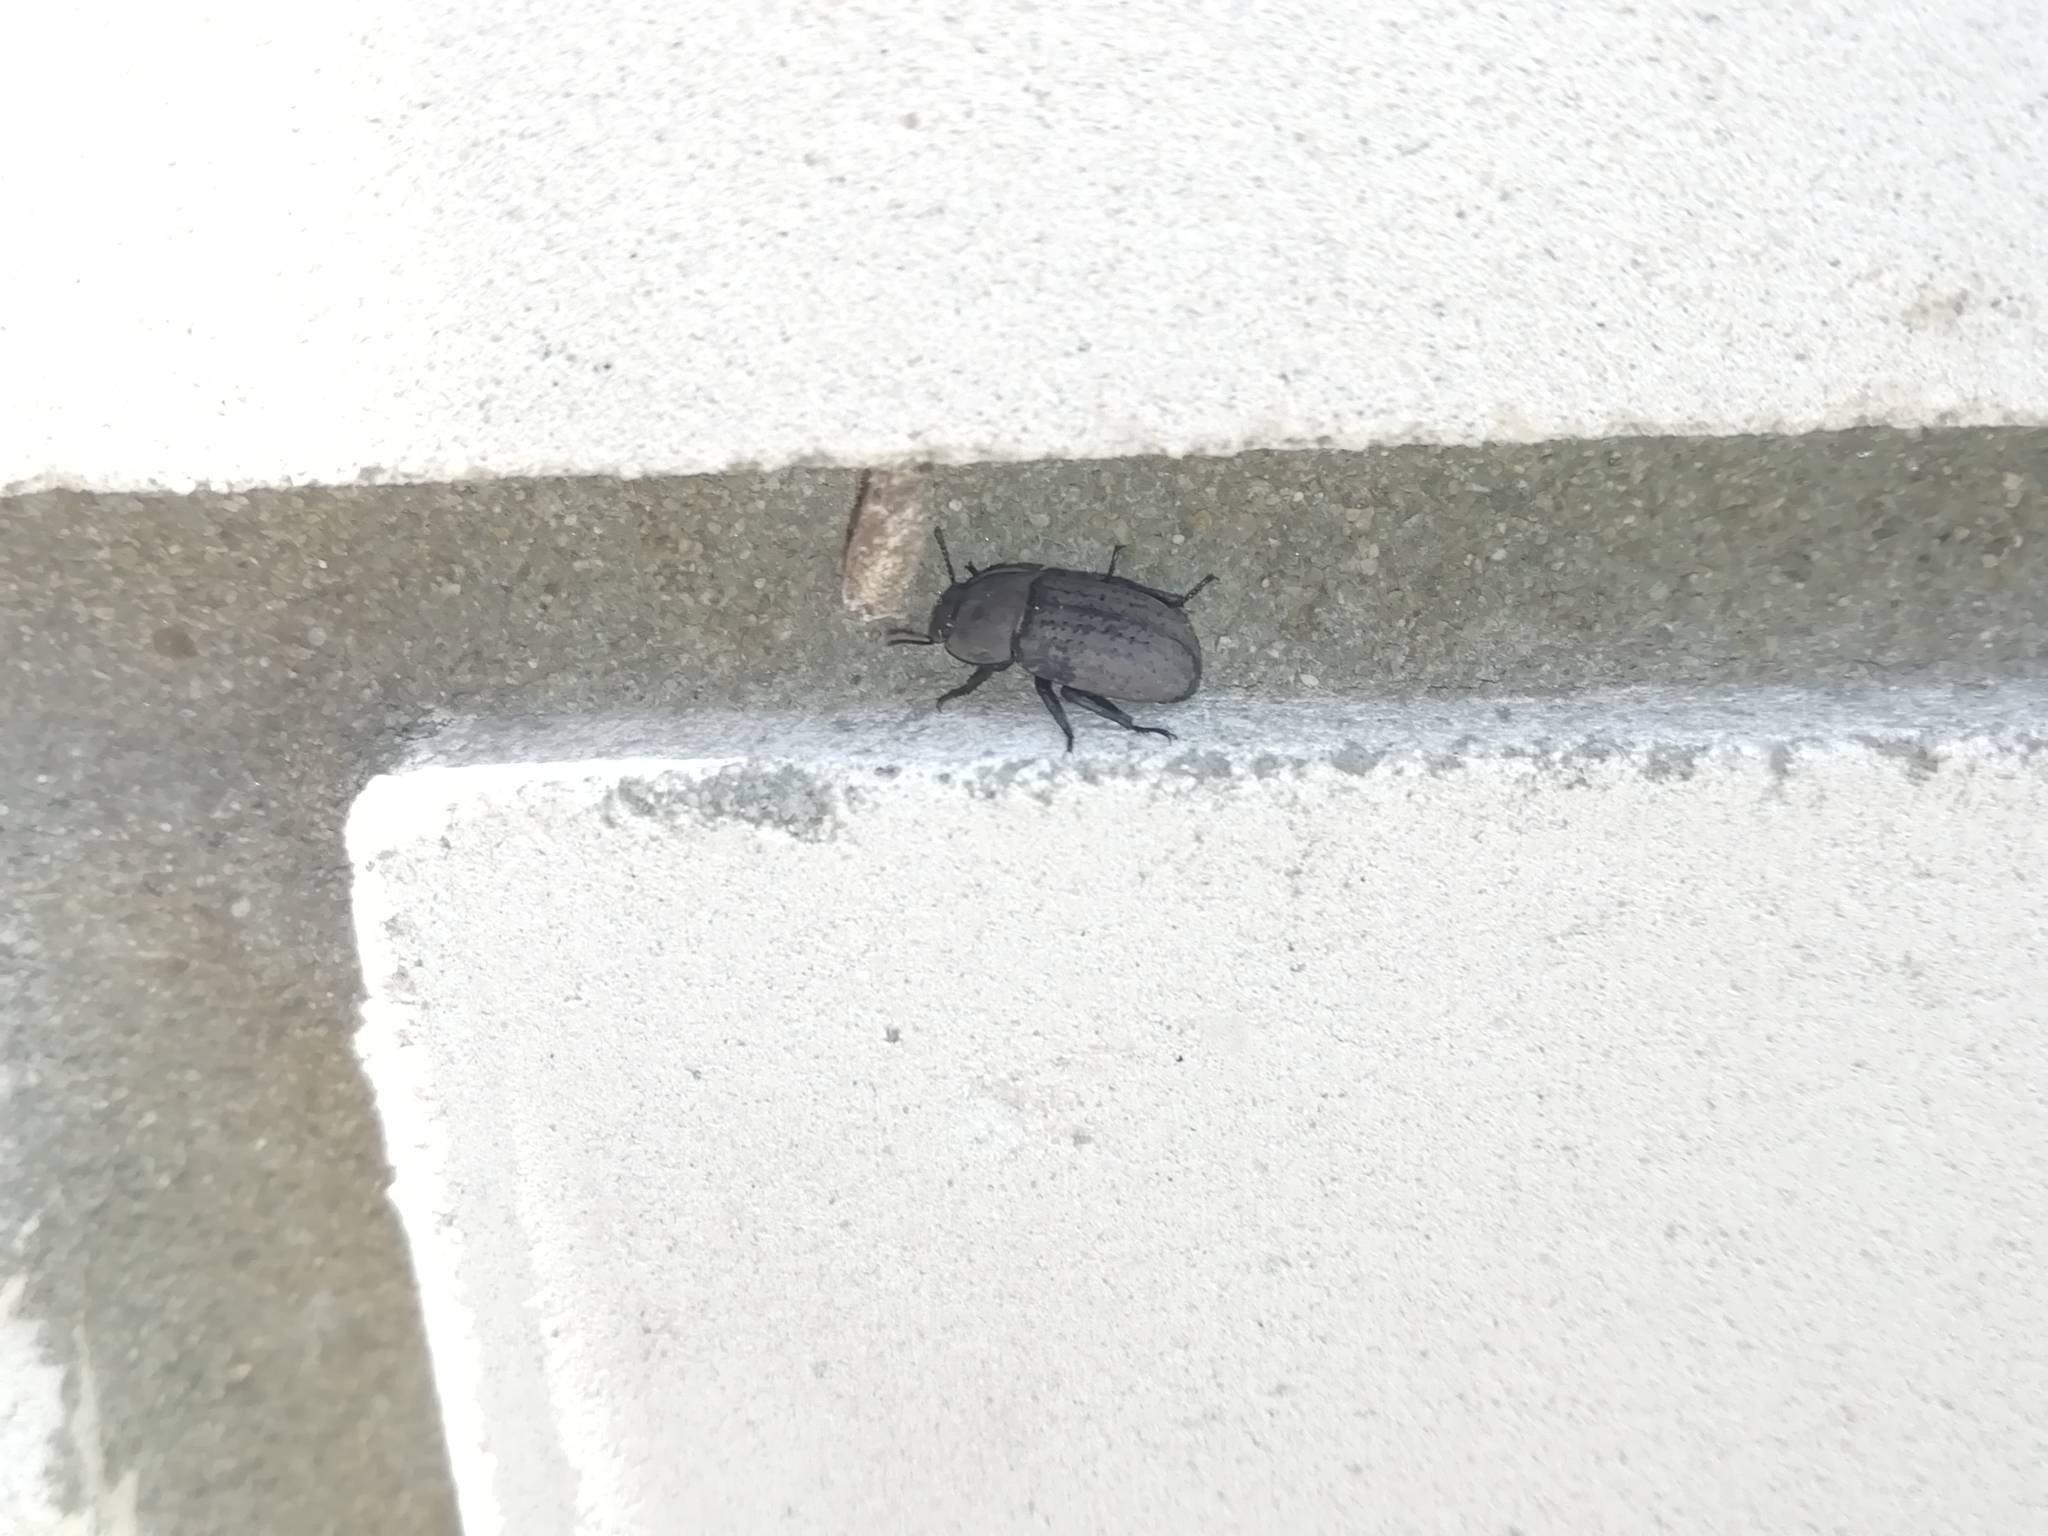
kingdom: Animalia
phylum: Arthropoda
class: Insecta
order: Coleoptera
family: Tenebrionidae
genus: Opatrum
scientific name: Opatrum sabulosum
